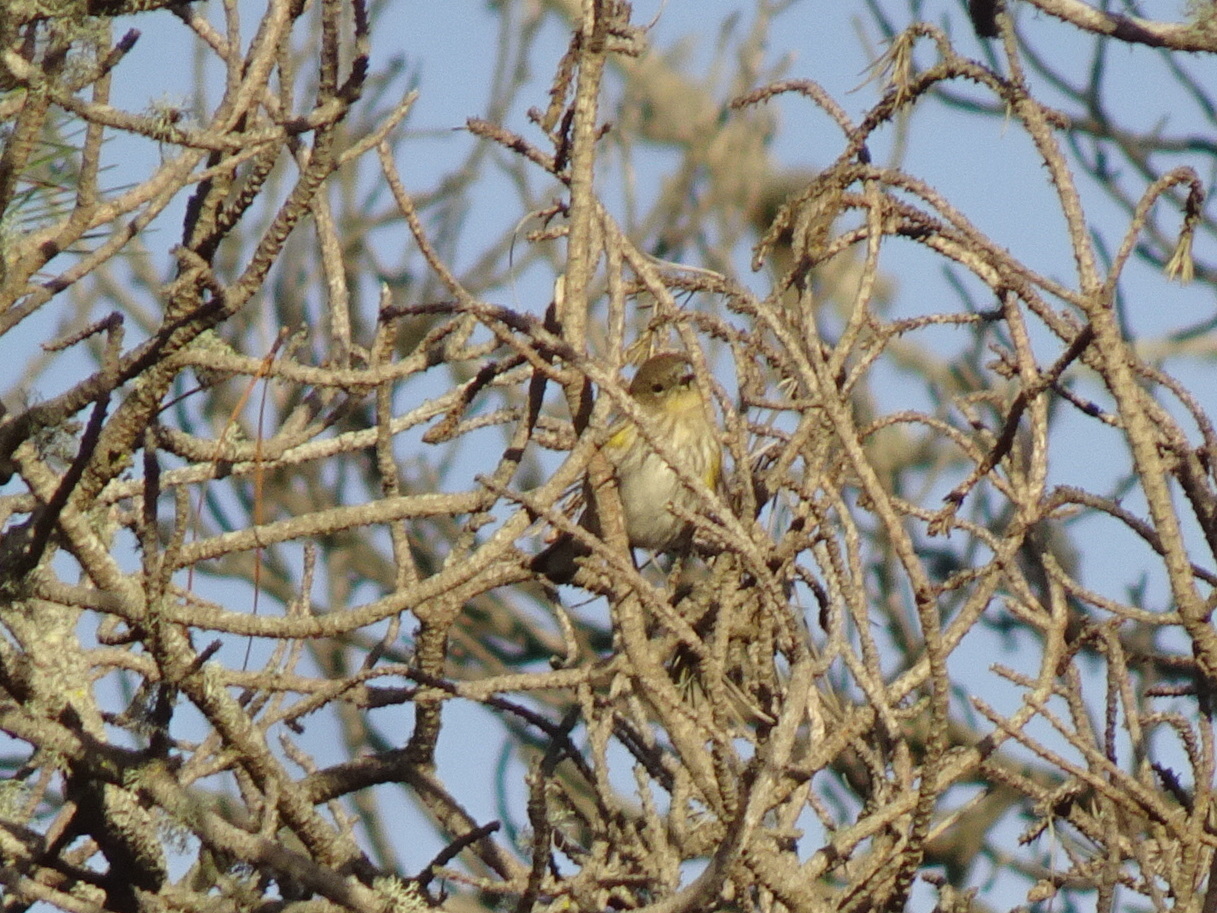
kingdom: Animalia
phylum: Chordata
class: Aves
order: Passeriformes
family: Parulidae
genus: Setophaga
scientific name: Setophaga coronata
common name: Myrtle warbler
